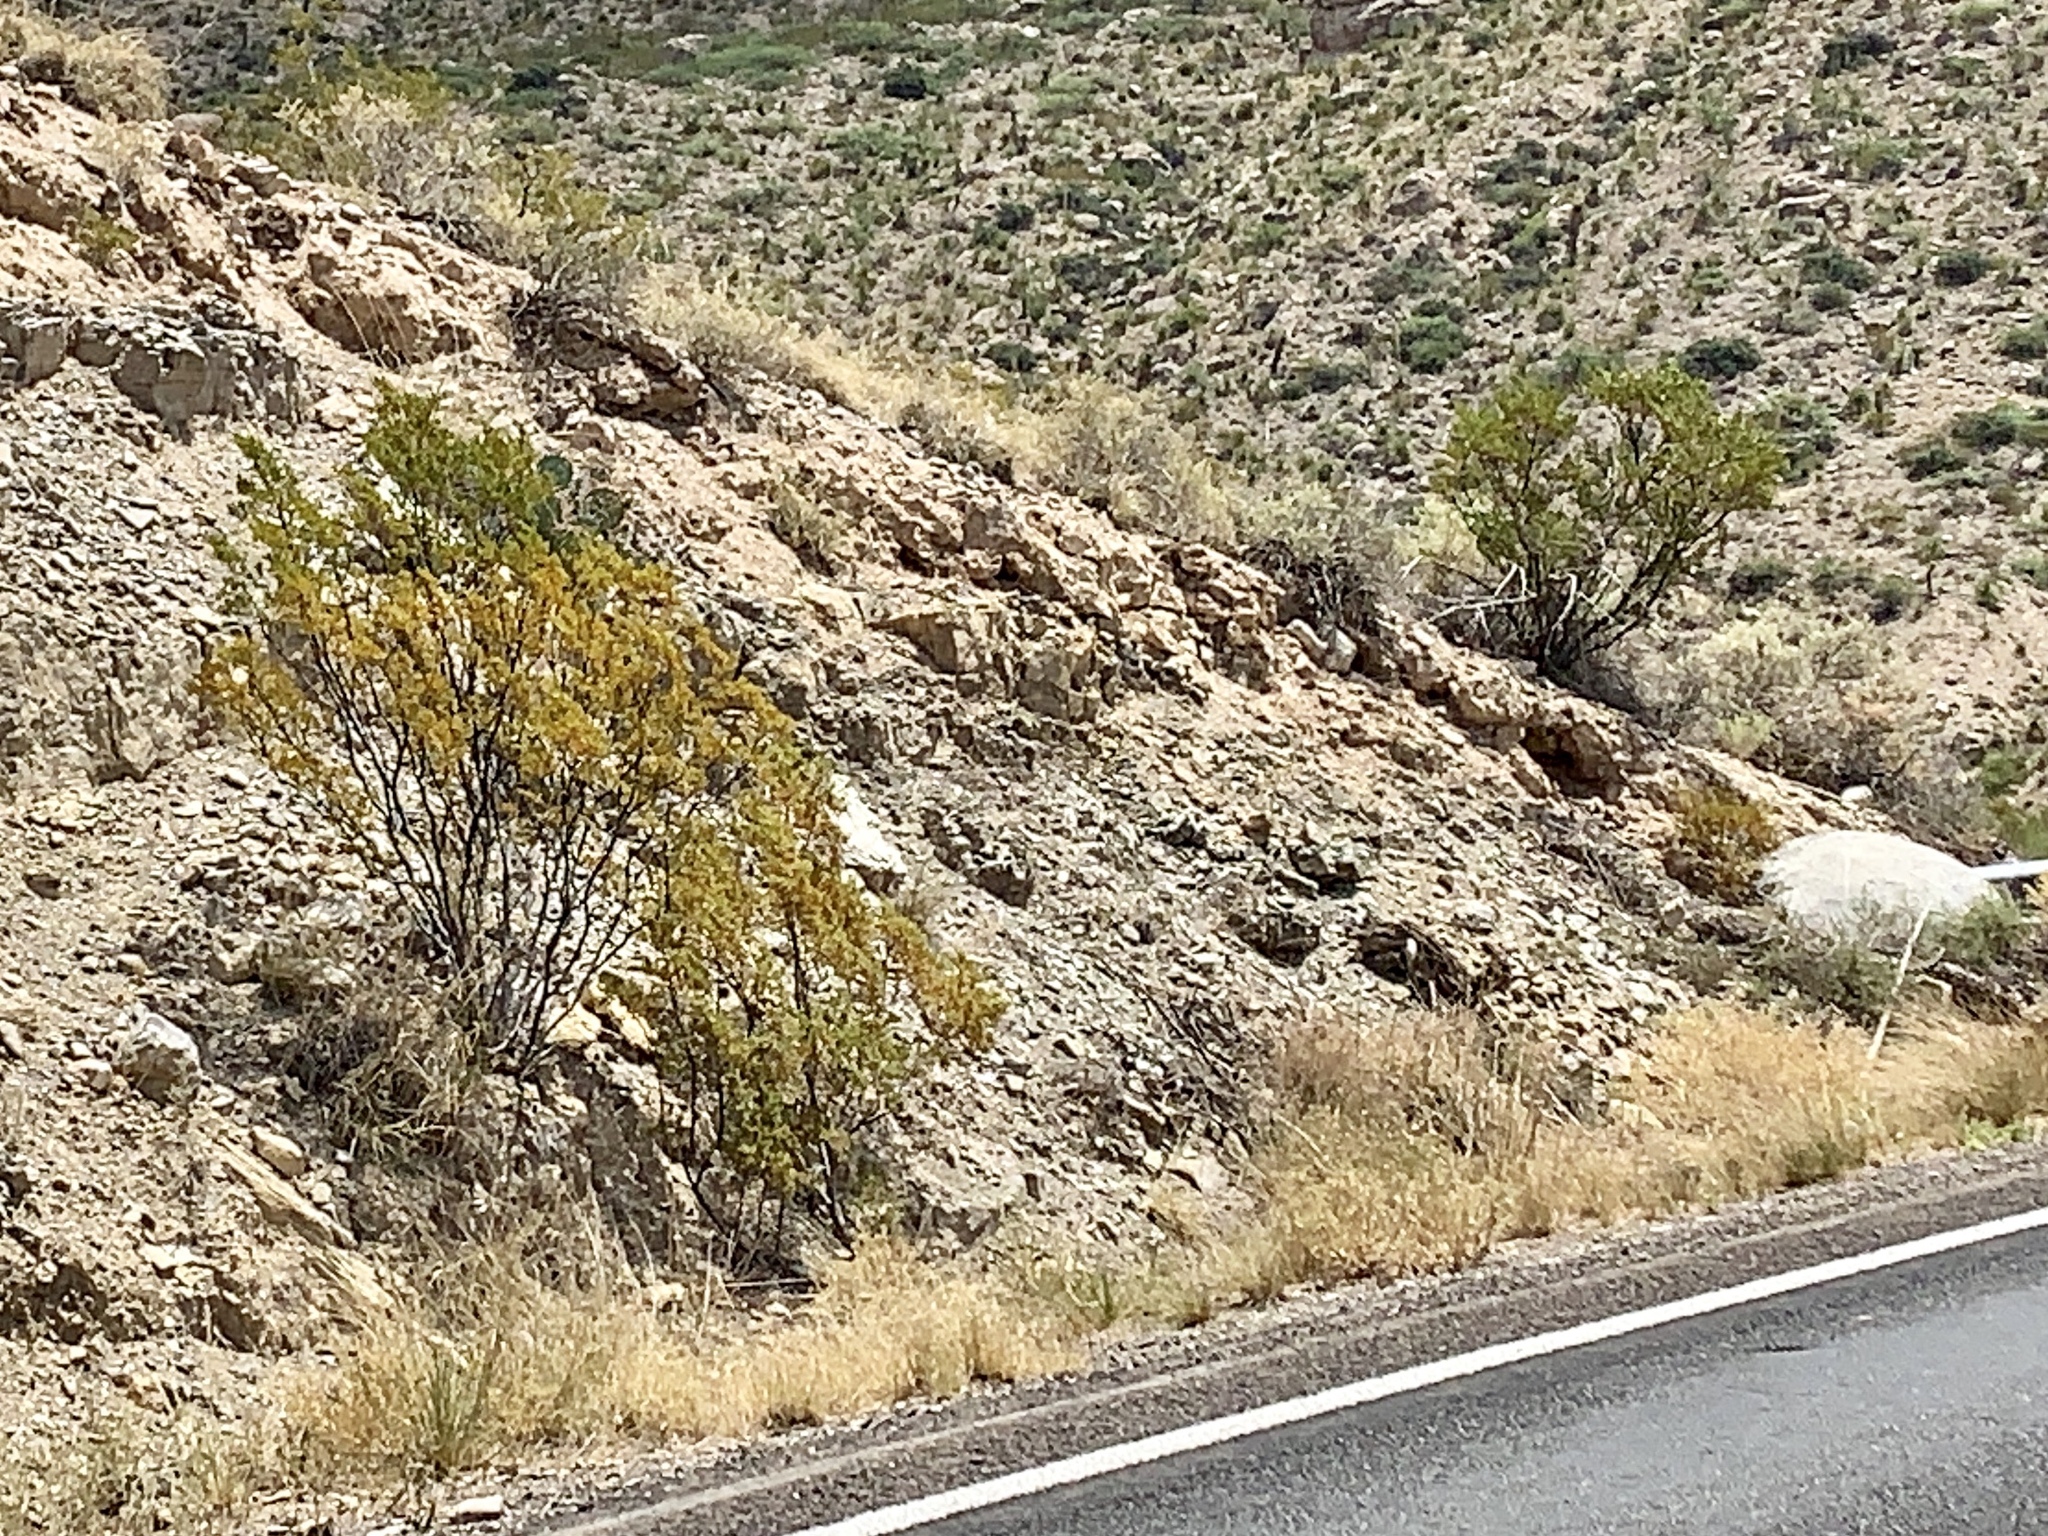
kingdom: Plantae
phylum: Tracheophyta
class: Magnoliopsida
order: Zygophyllales
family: Zygophyllaceae
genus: Larrea
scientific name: Larrea tridentata
